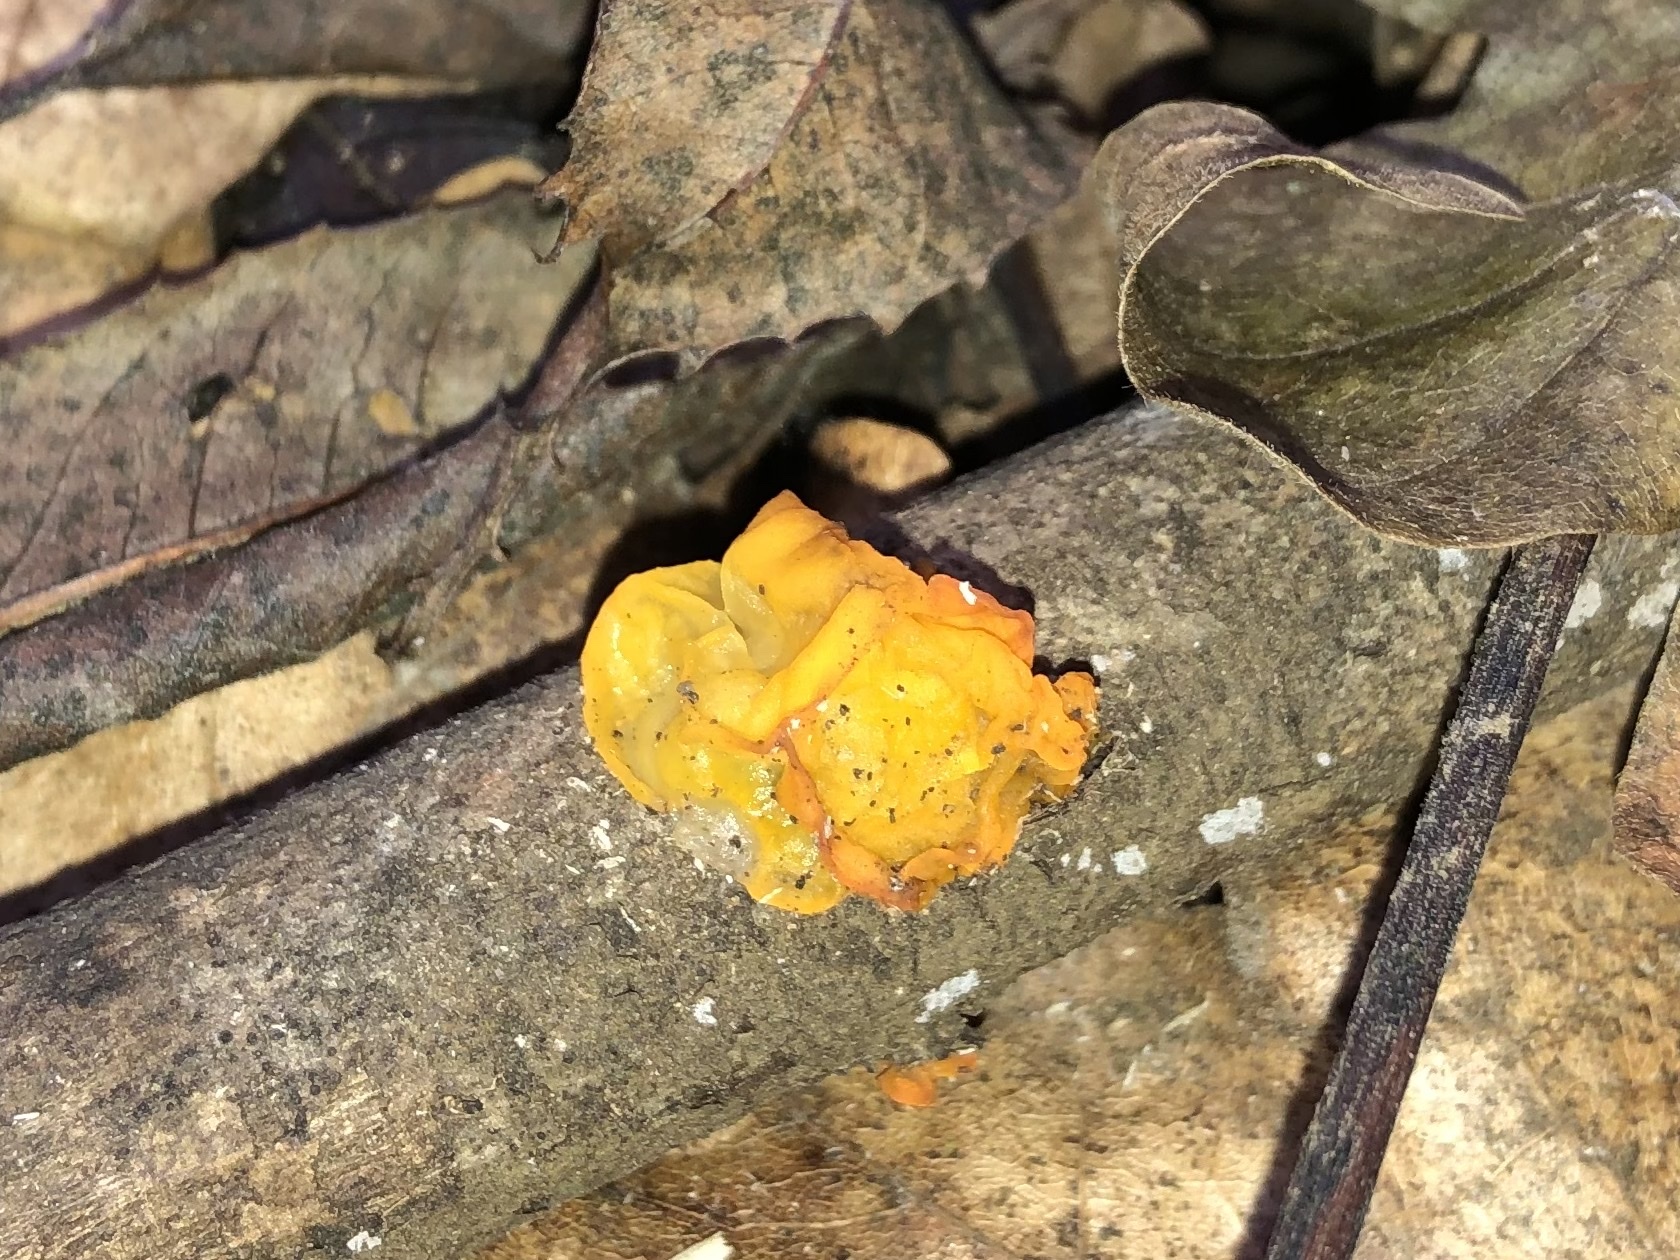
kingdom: Fungi
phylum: Basidiomycota
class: Tremellomycetes
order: Tremellales
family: Tremellaceae
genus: Tremella
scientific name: Tremella mesenterica
